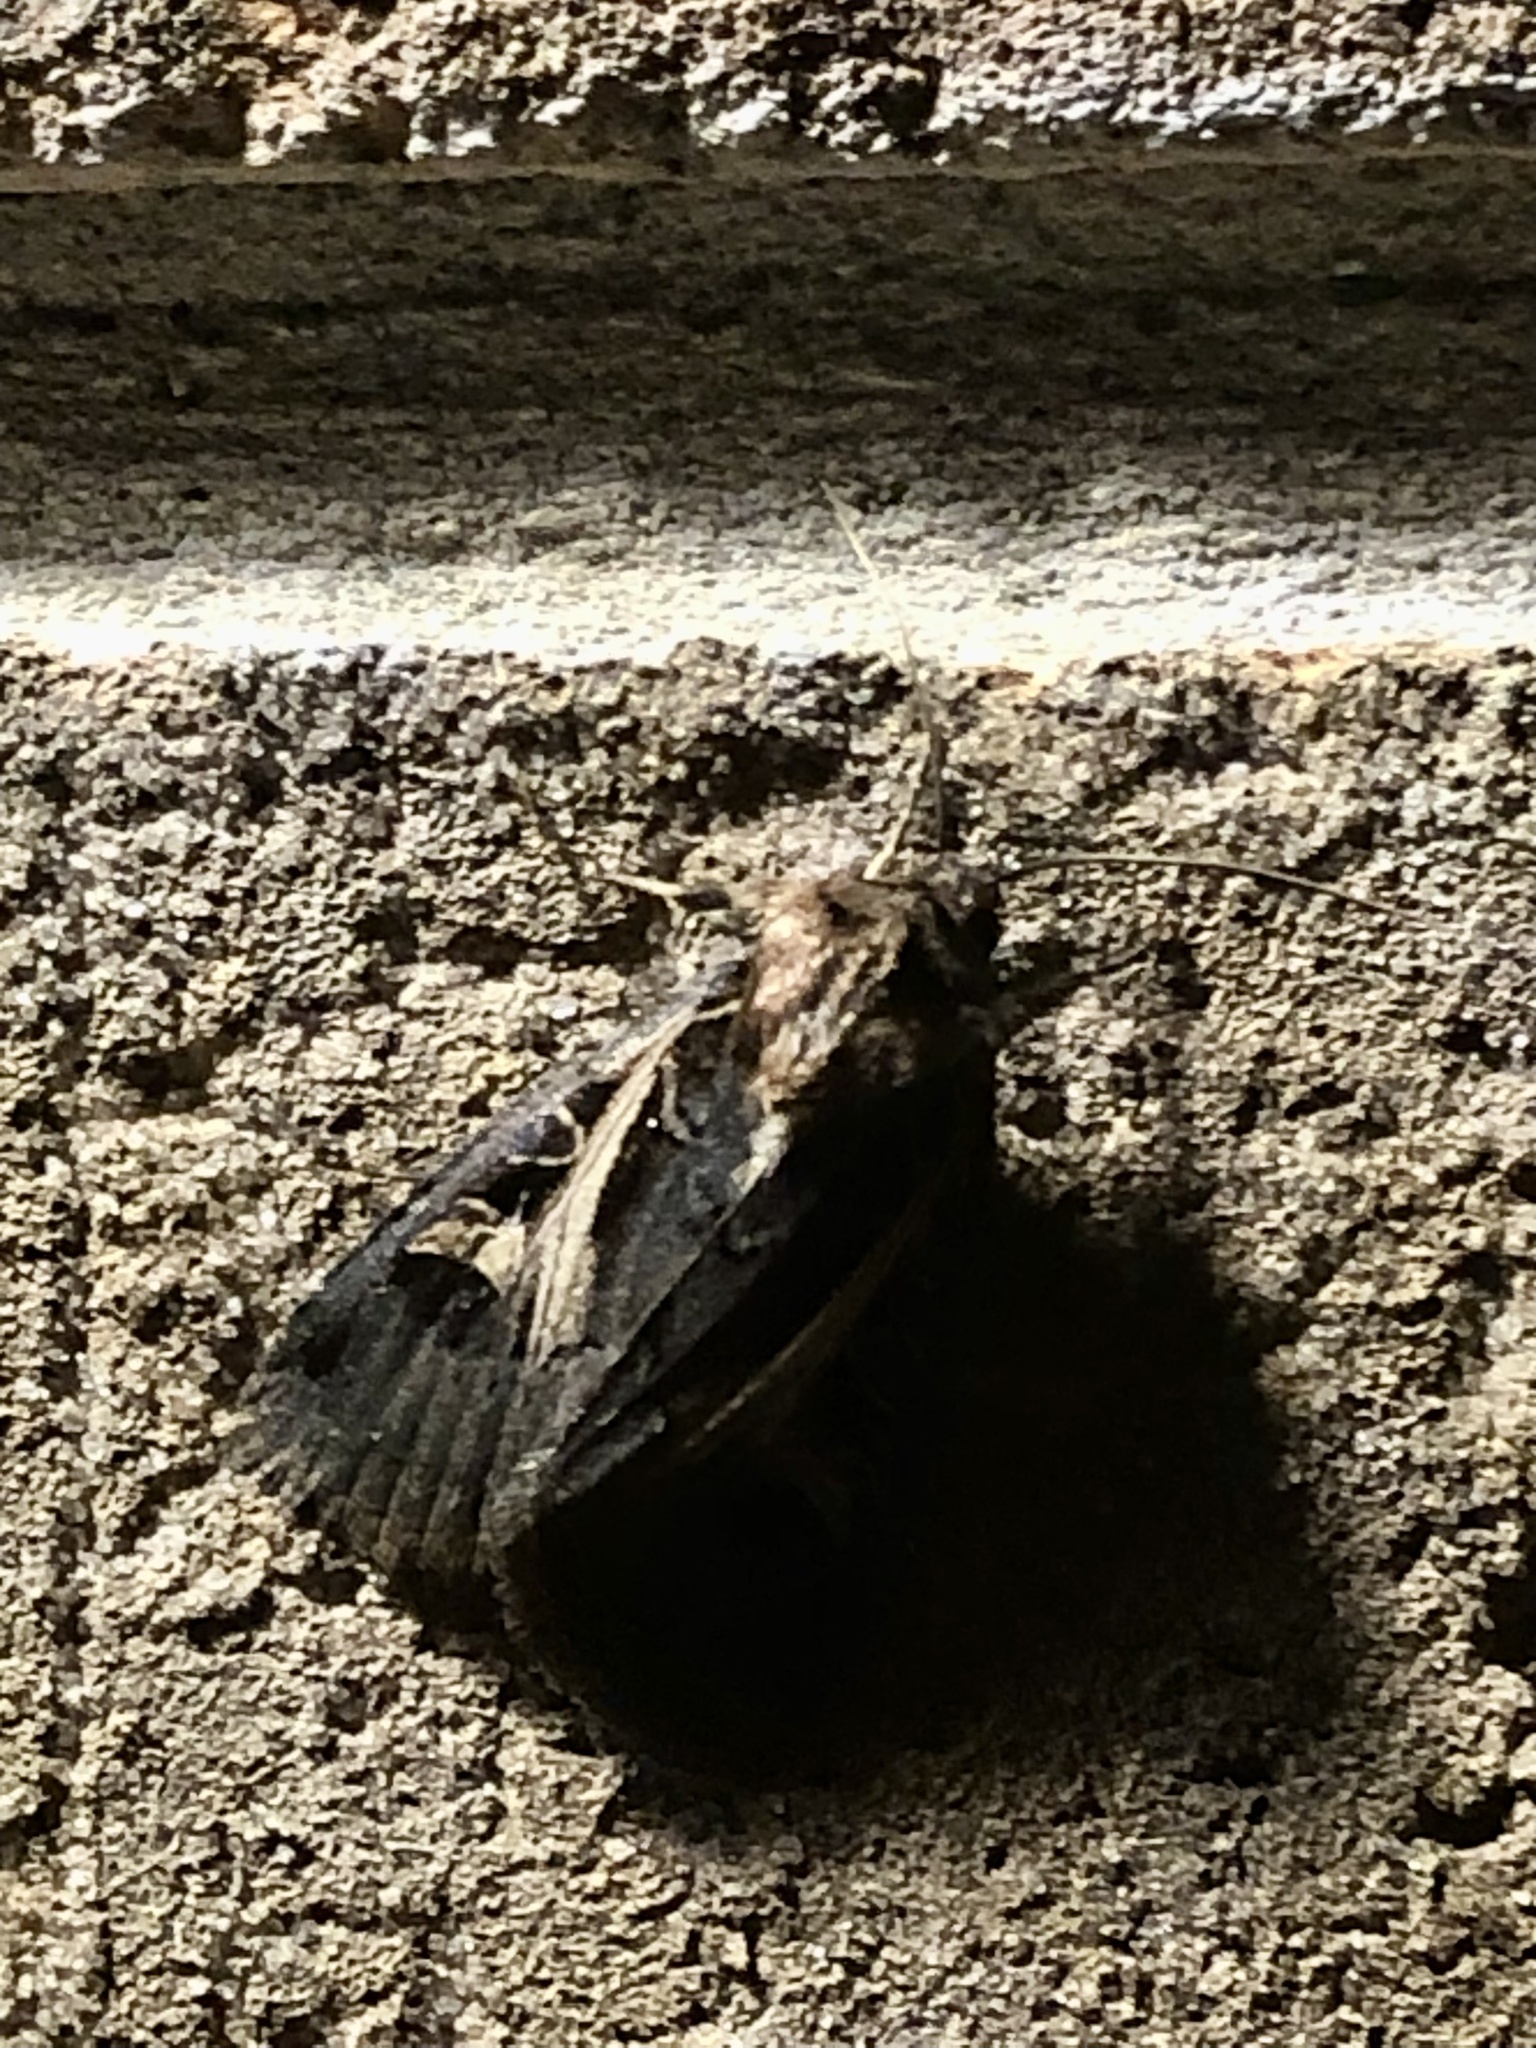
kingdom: Animalia
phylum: Arthropoda
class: Insecta
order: Lepidoptera
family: Noctuidae
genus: Feltia
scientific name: Feltia herilis
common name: Master's dart
